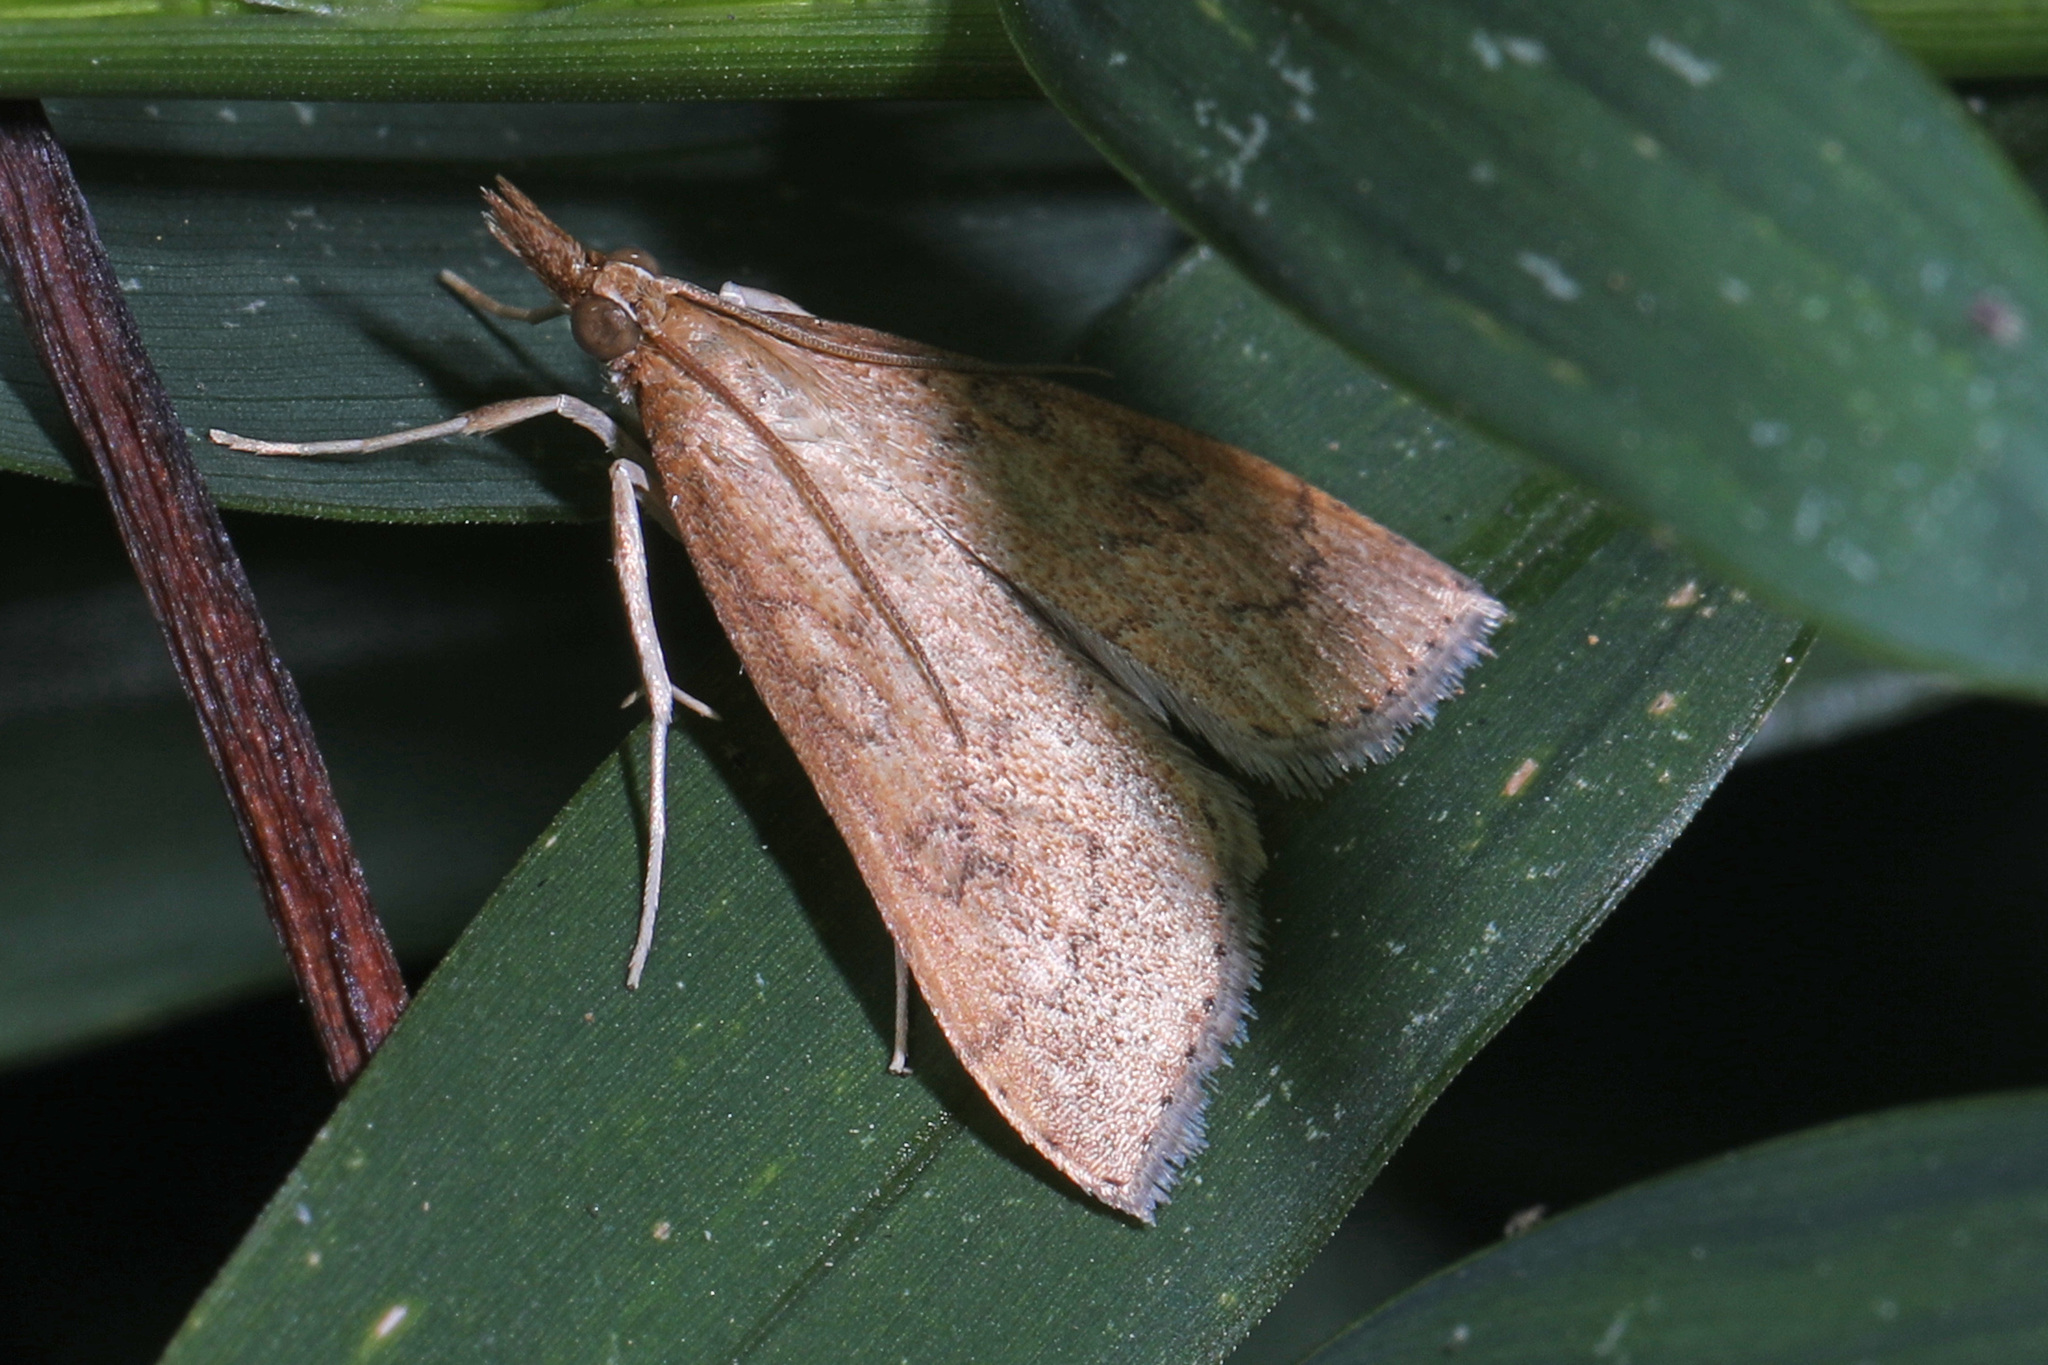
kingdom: Animalia
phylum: Arthropoda
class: Insecta
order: Lepidoptera
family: Crambidae
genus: Udea
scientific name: Udea rubigalis
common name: Celery leaftier moth
